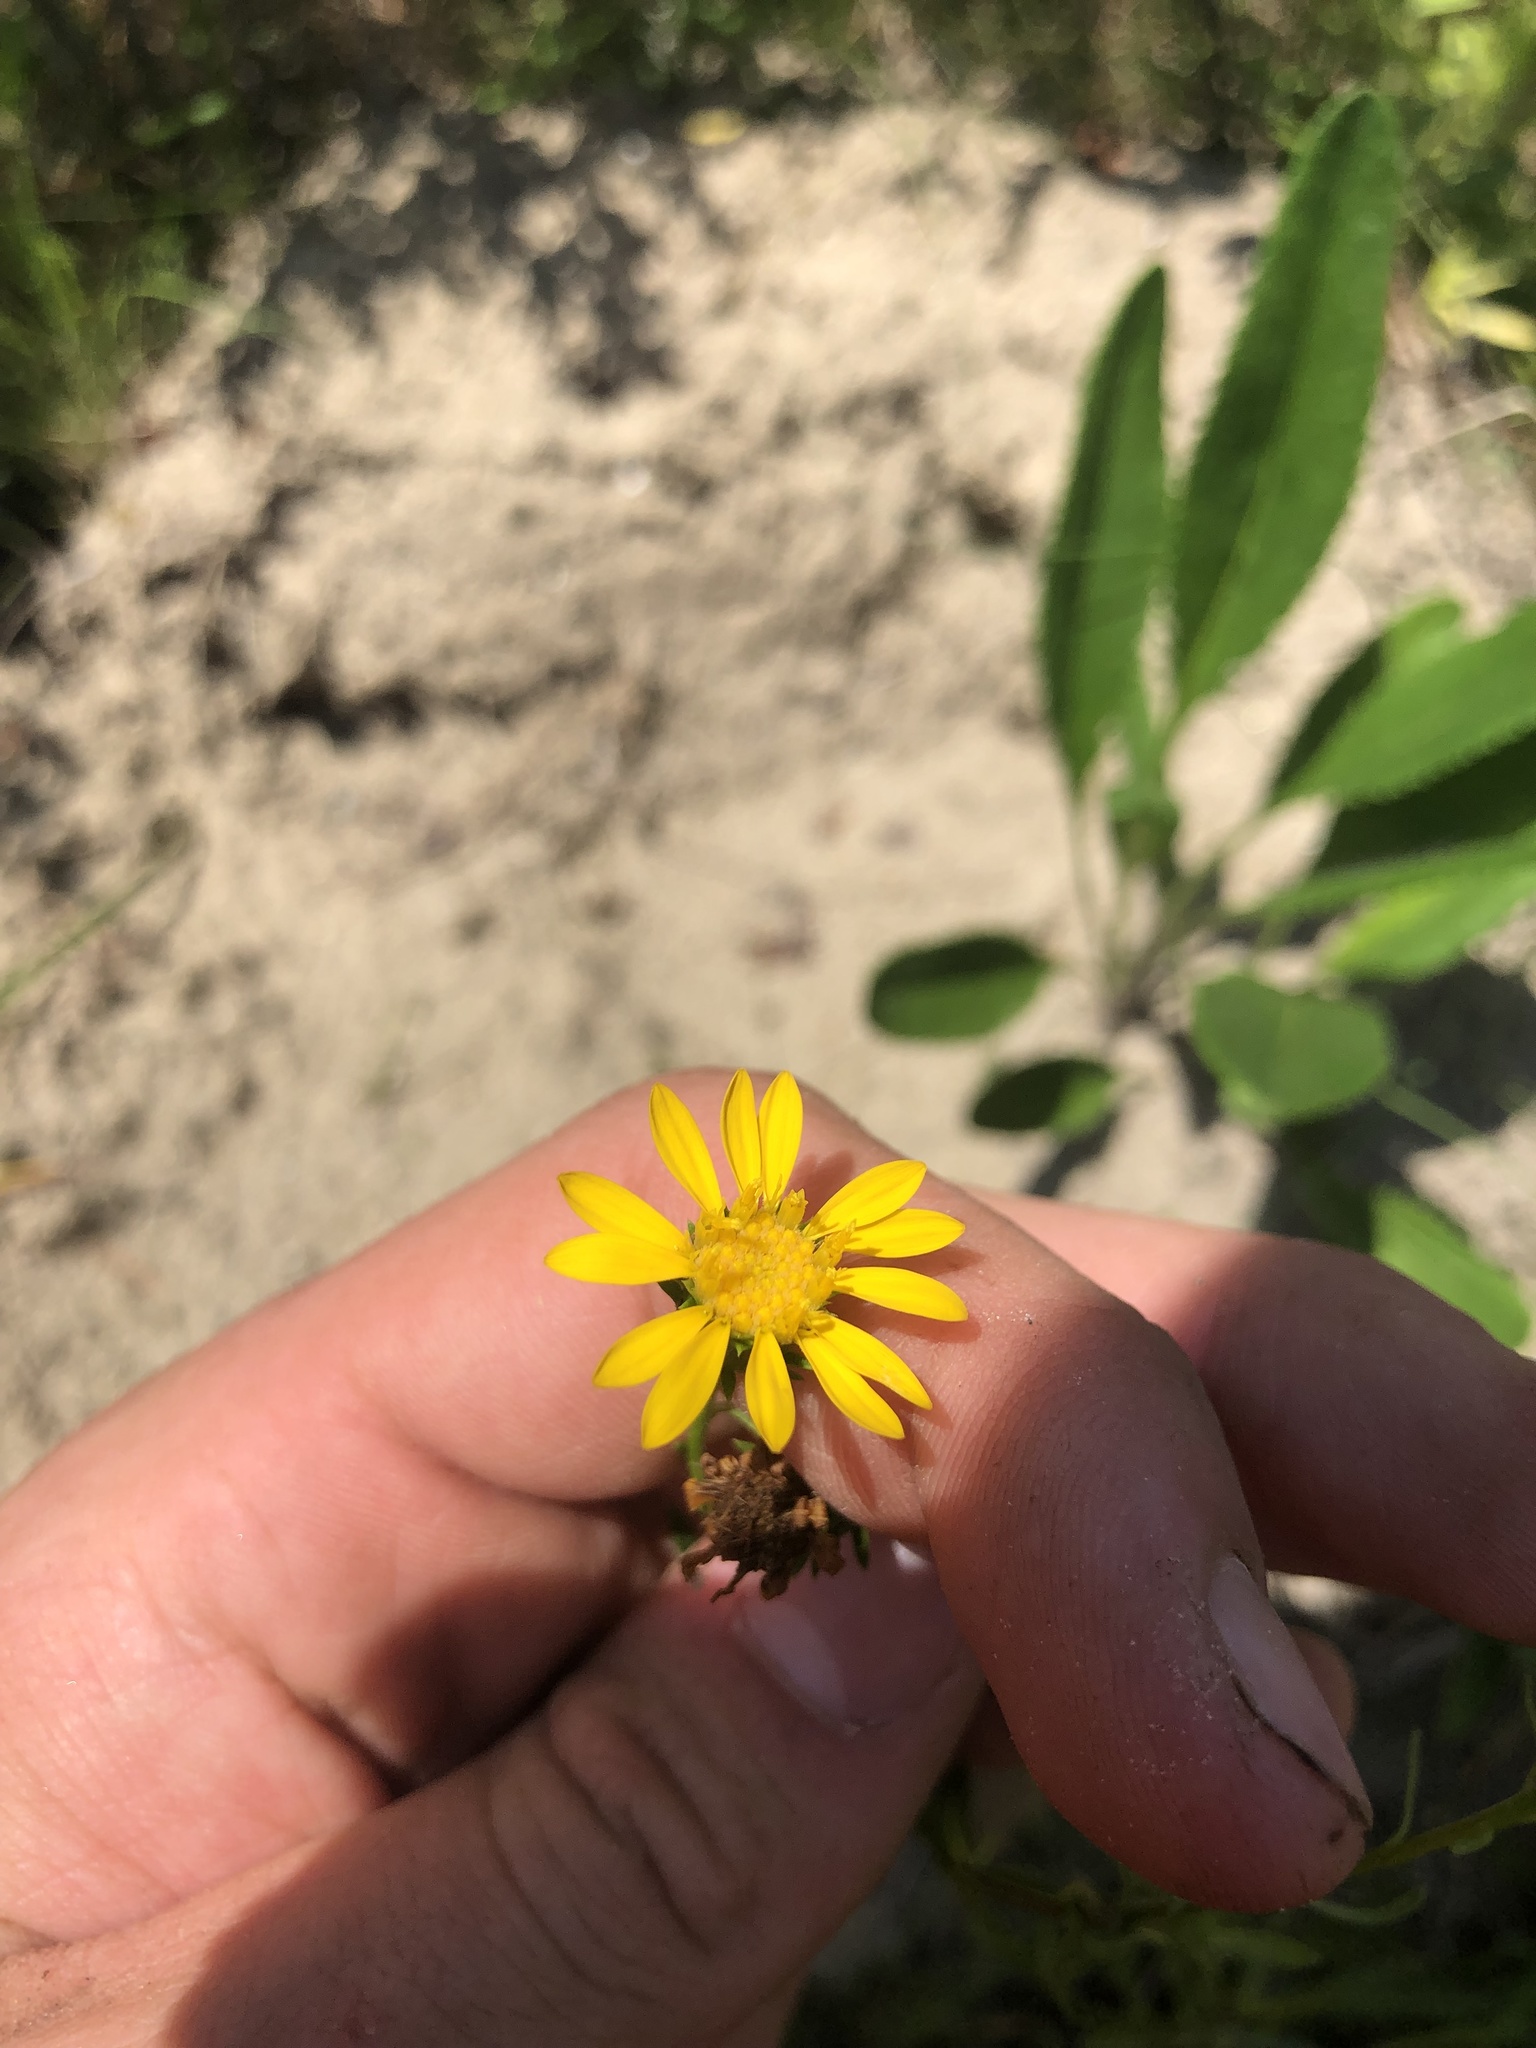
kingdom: Plantae
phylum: Tracheophyta
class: Magnoliopsida
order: Asterales
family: Asteraceae
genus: Chrysopsis
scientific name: Chrysopsis gossypina
